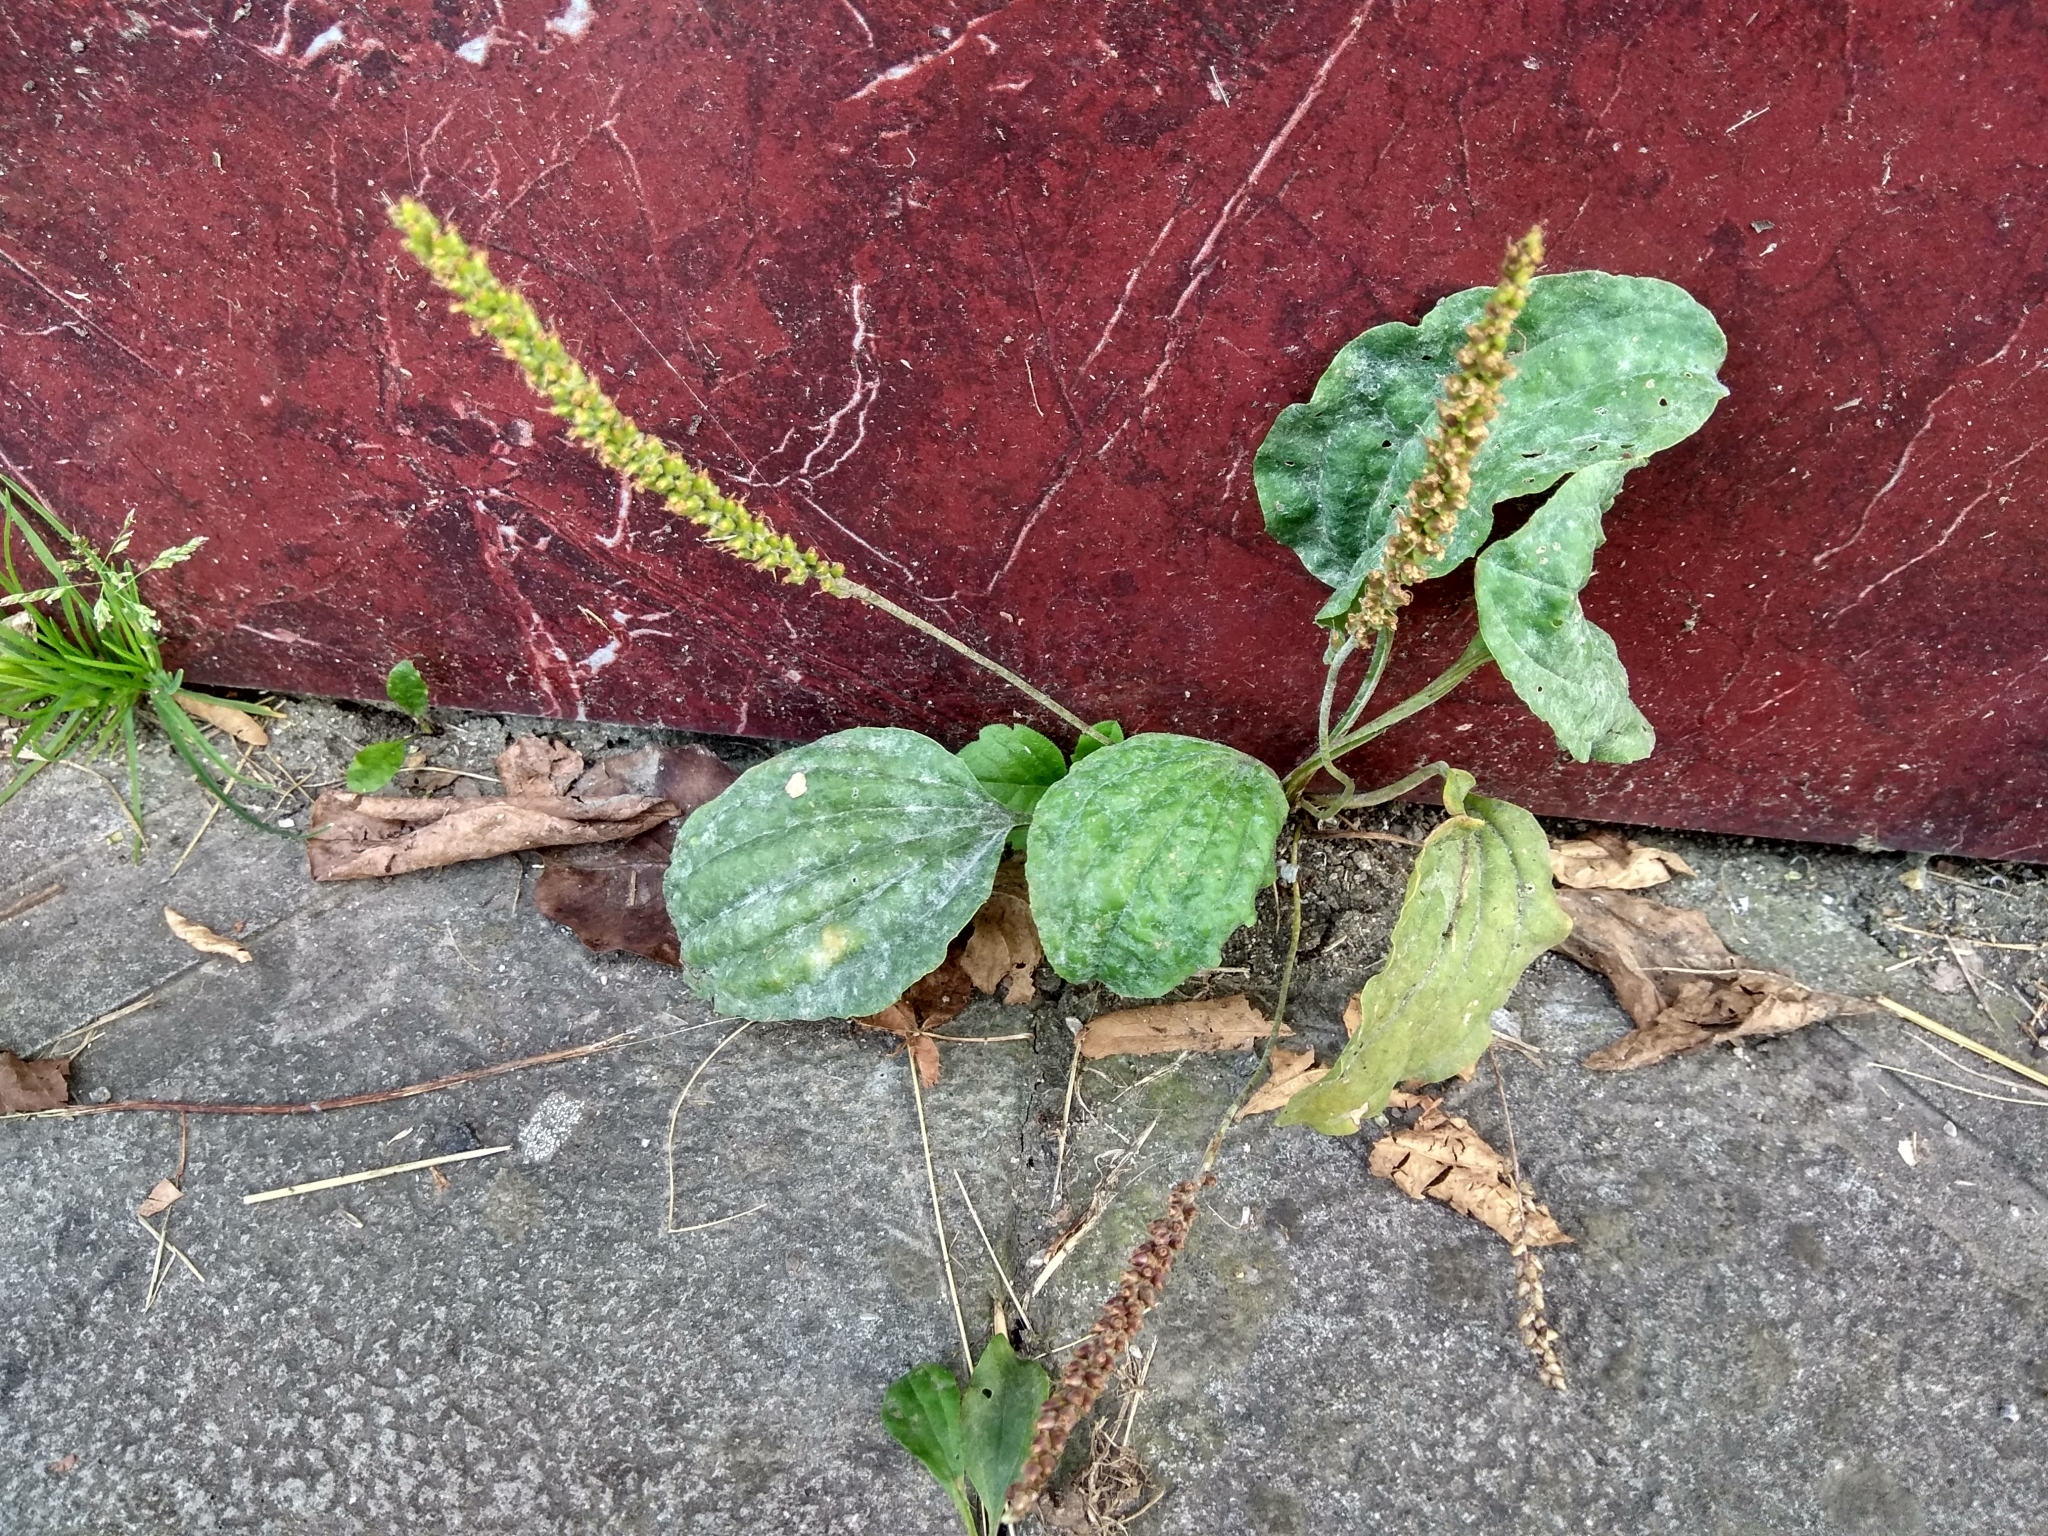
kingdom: Plantae
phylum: Tracheophyta
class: Magnoliopsida
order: Lamiales
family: Plantaginaceae
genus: Plantago
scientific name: Plantago major
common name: Common plantain
